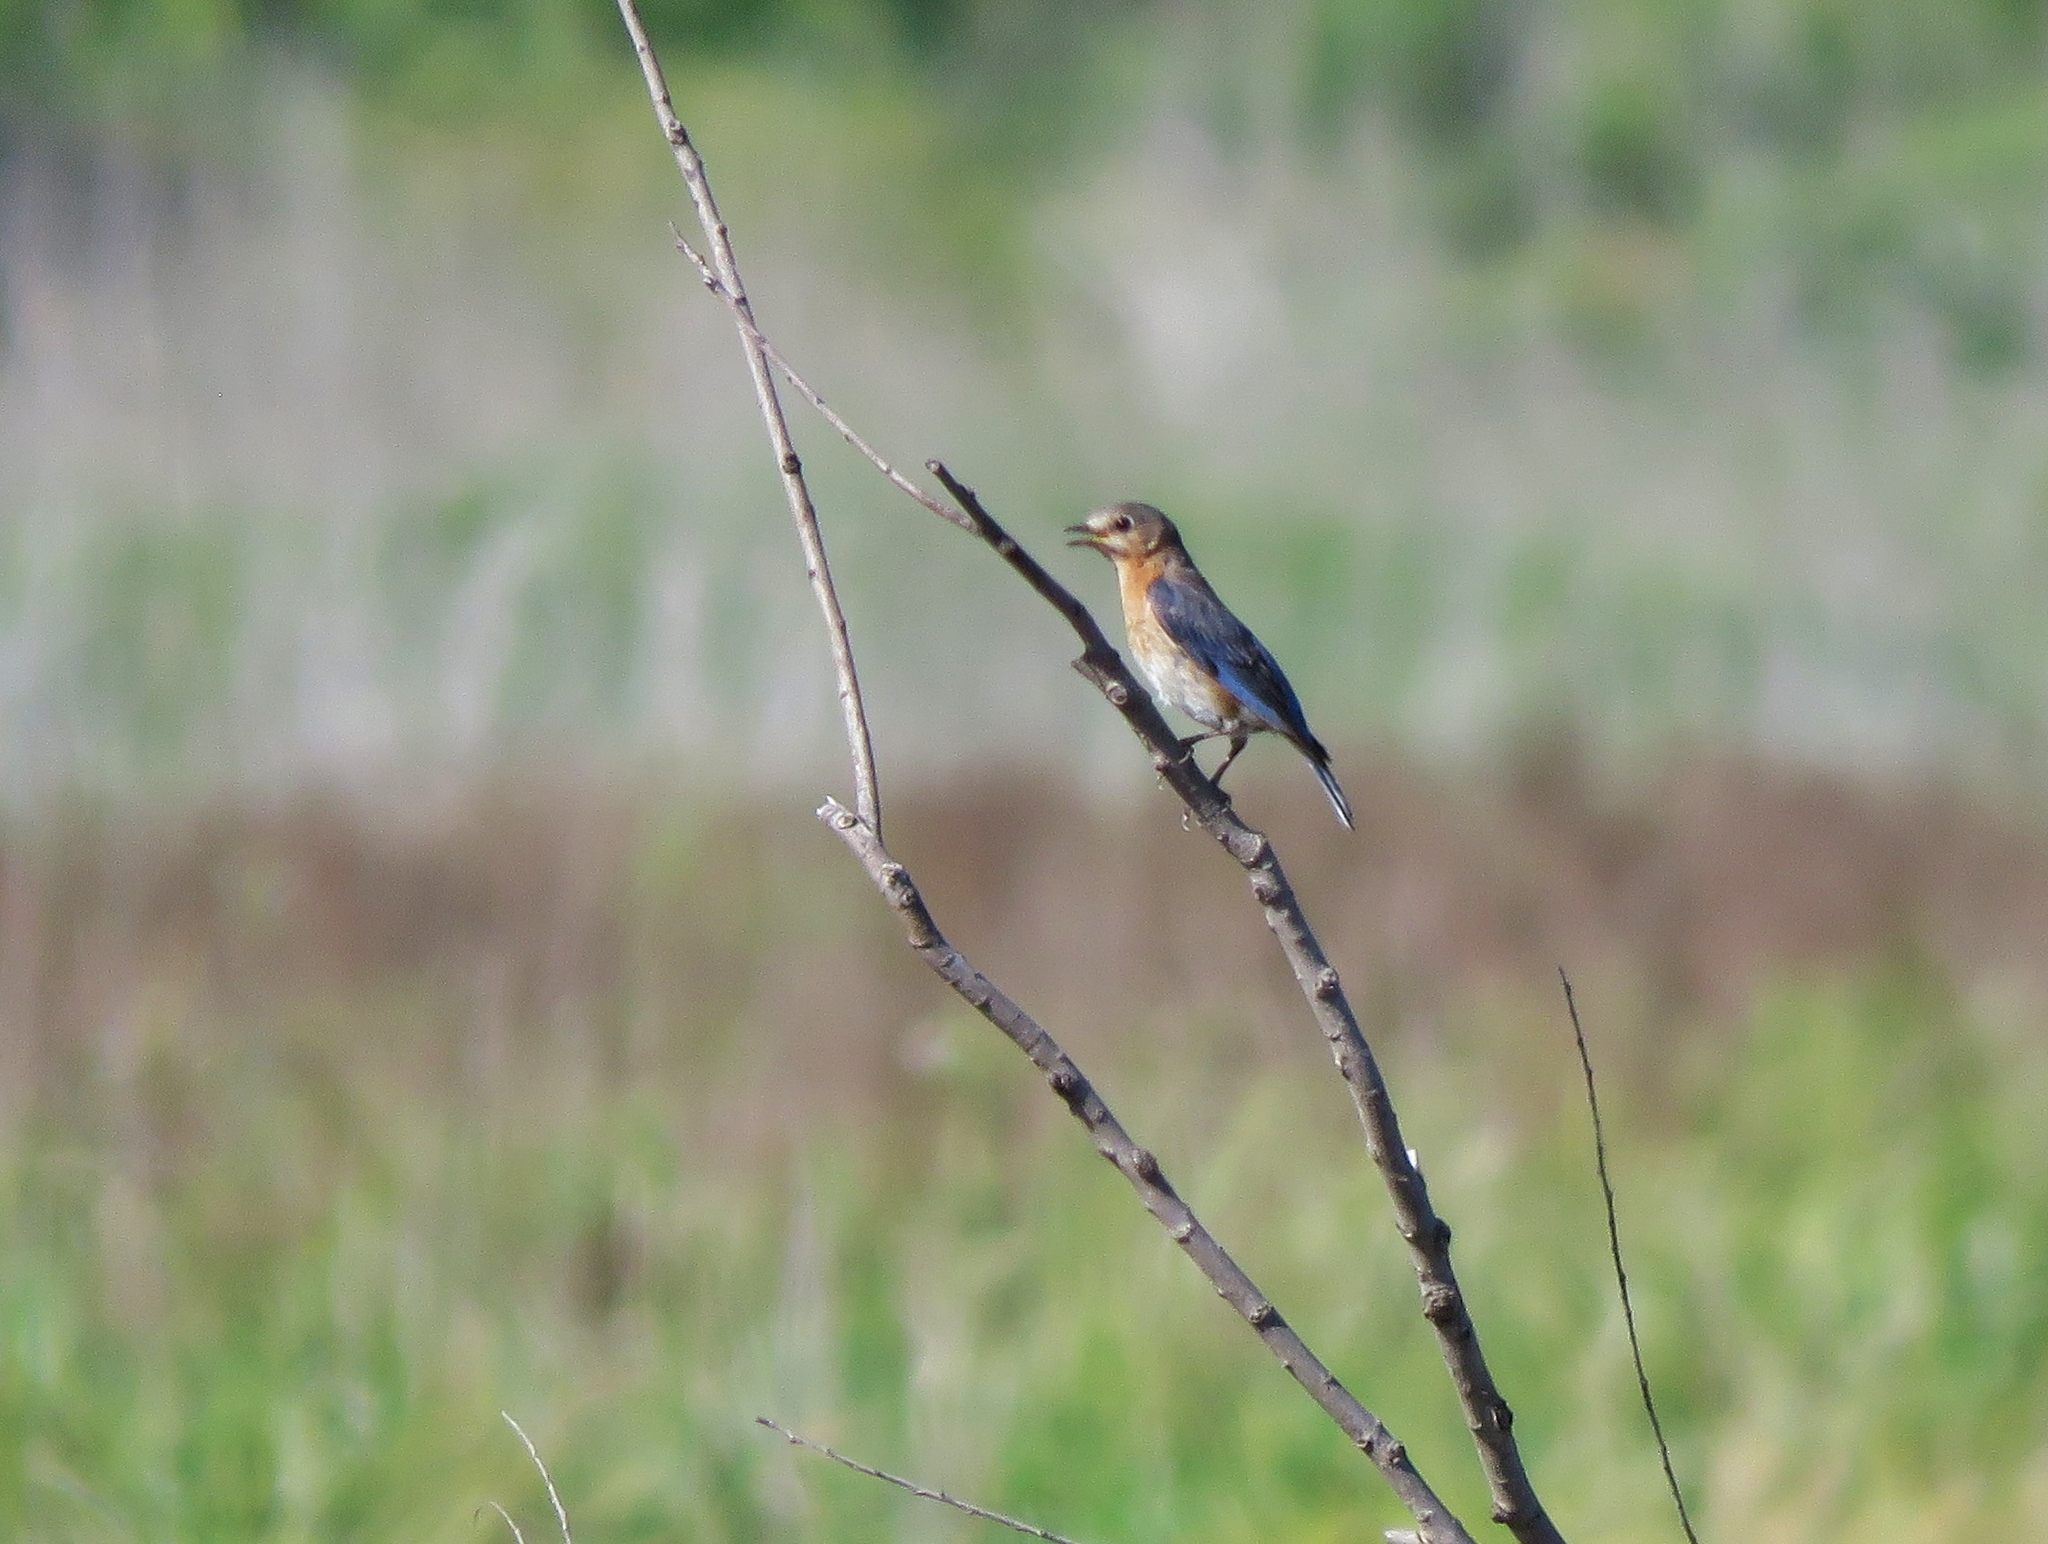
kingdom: Animalia
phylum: Chordata
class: Aves
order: Passeriformes
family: Turdidae
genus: Sialia
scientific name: Sialia sialis
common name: Eastern bluebird
